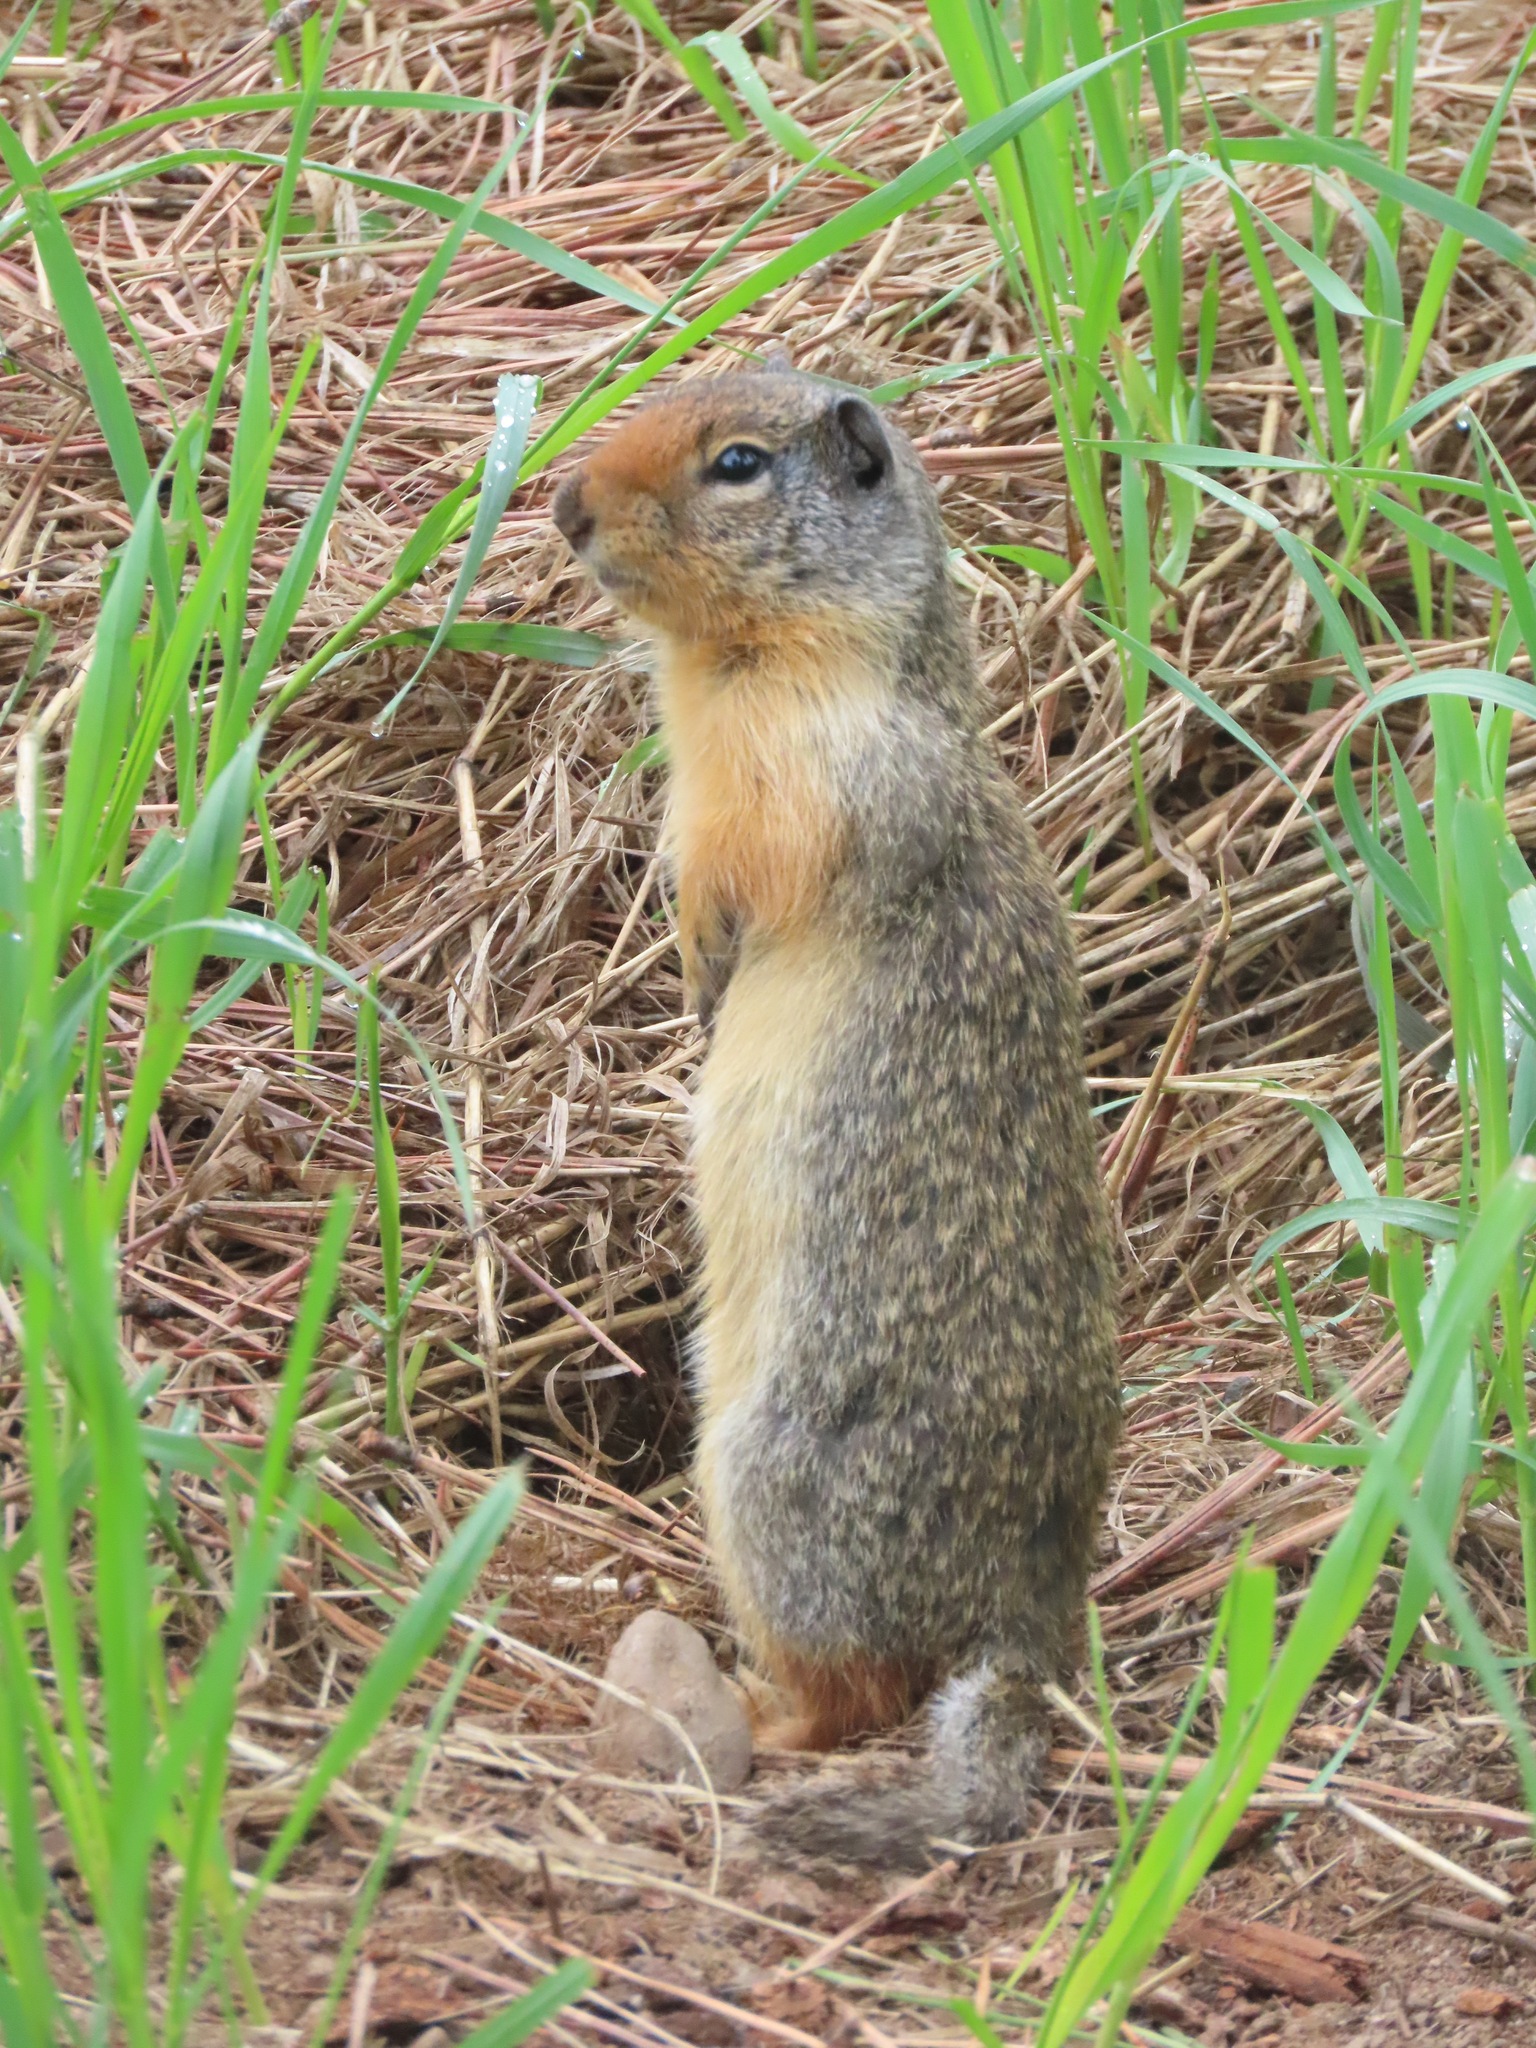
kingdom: Animalia
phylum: Chordata
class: Mammalia
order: Rodentia
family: Sciuridae
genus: Urocitellus
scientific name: Urocitellus columbianus
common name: Columbian ground squirrel
